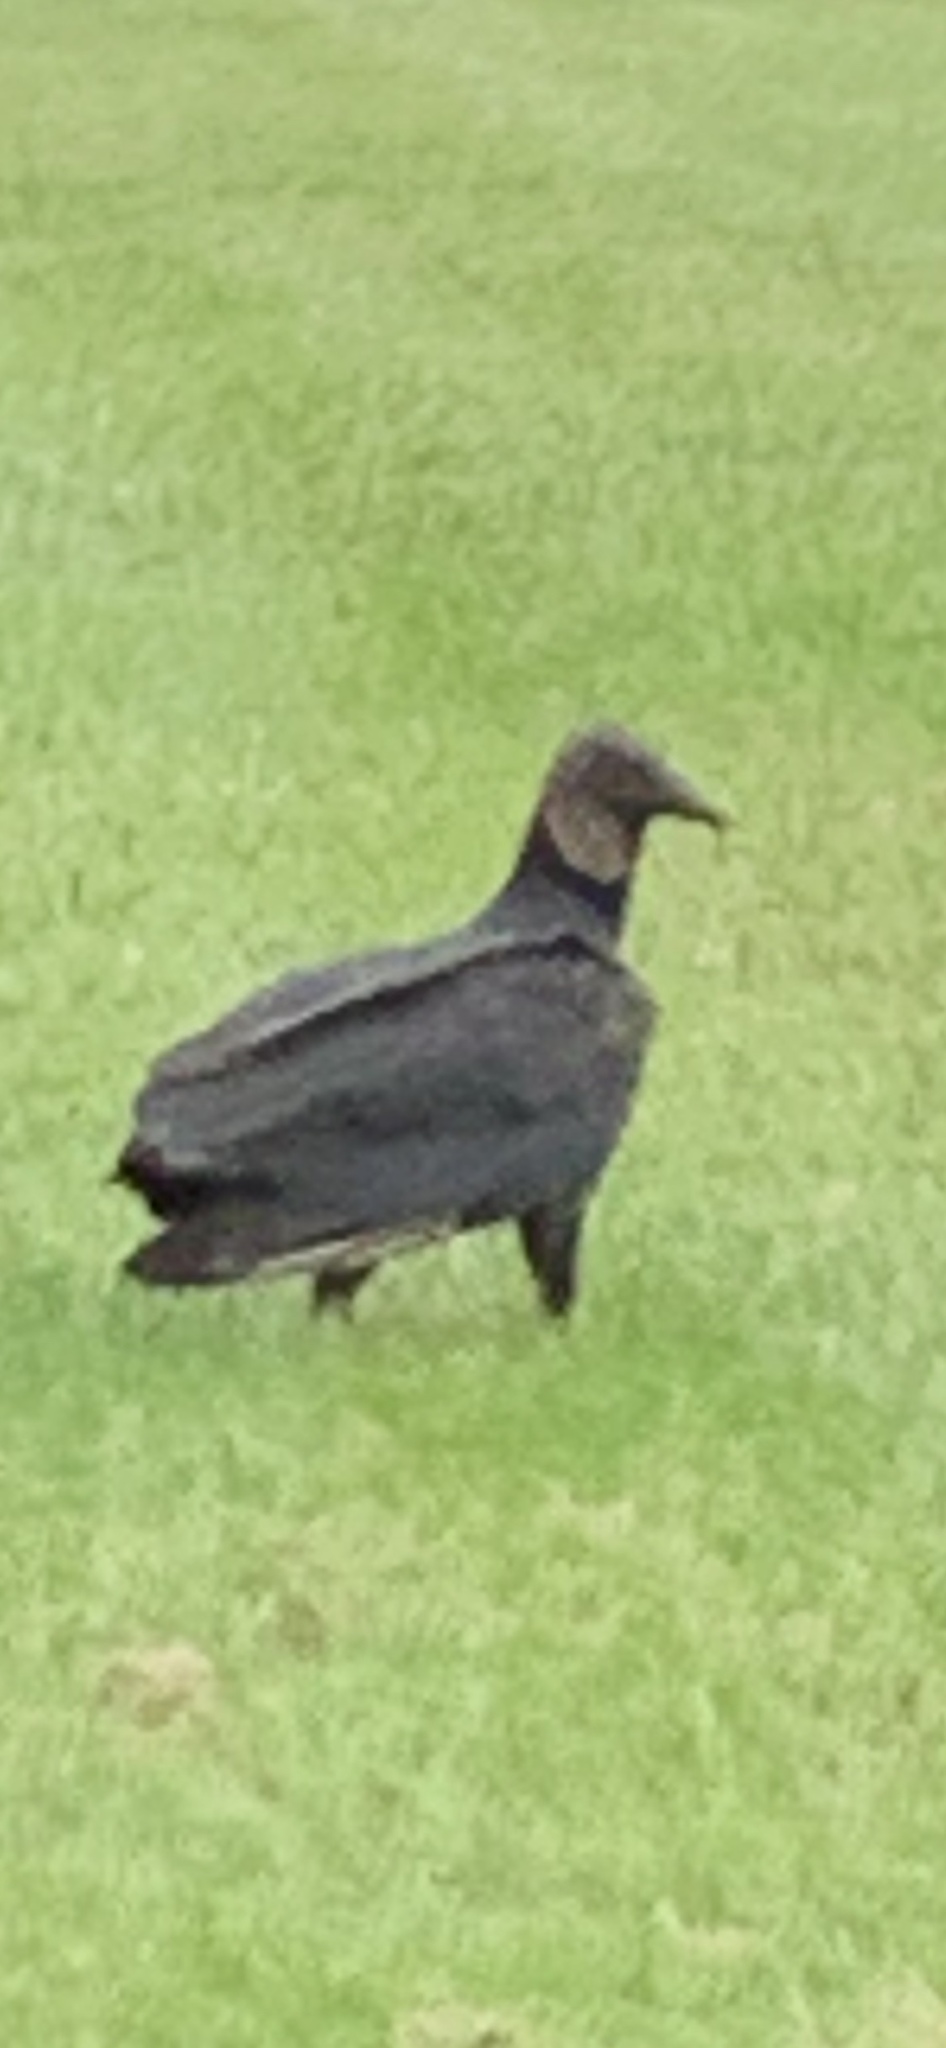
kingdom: Animalia
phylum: Chordata
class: Aves
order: Accipitriformes
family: Cathartidae
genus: Coragyps
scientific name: Coragyps atratus
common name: Black vulture
